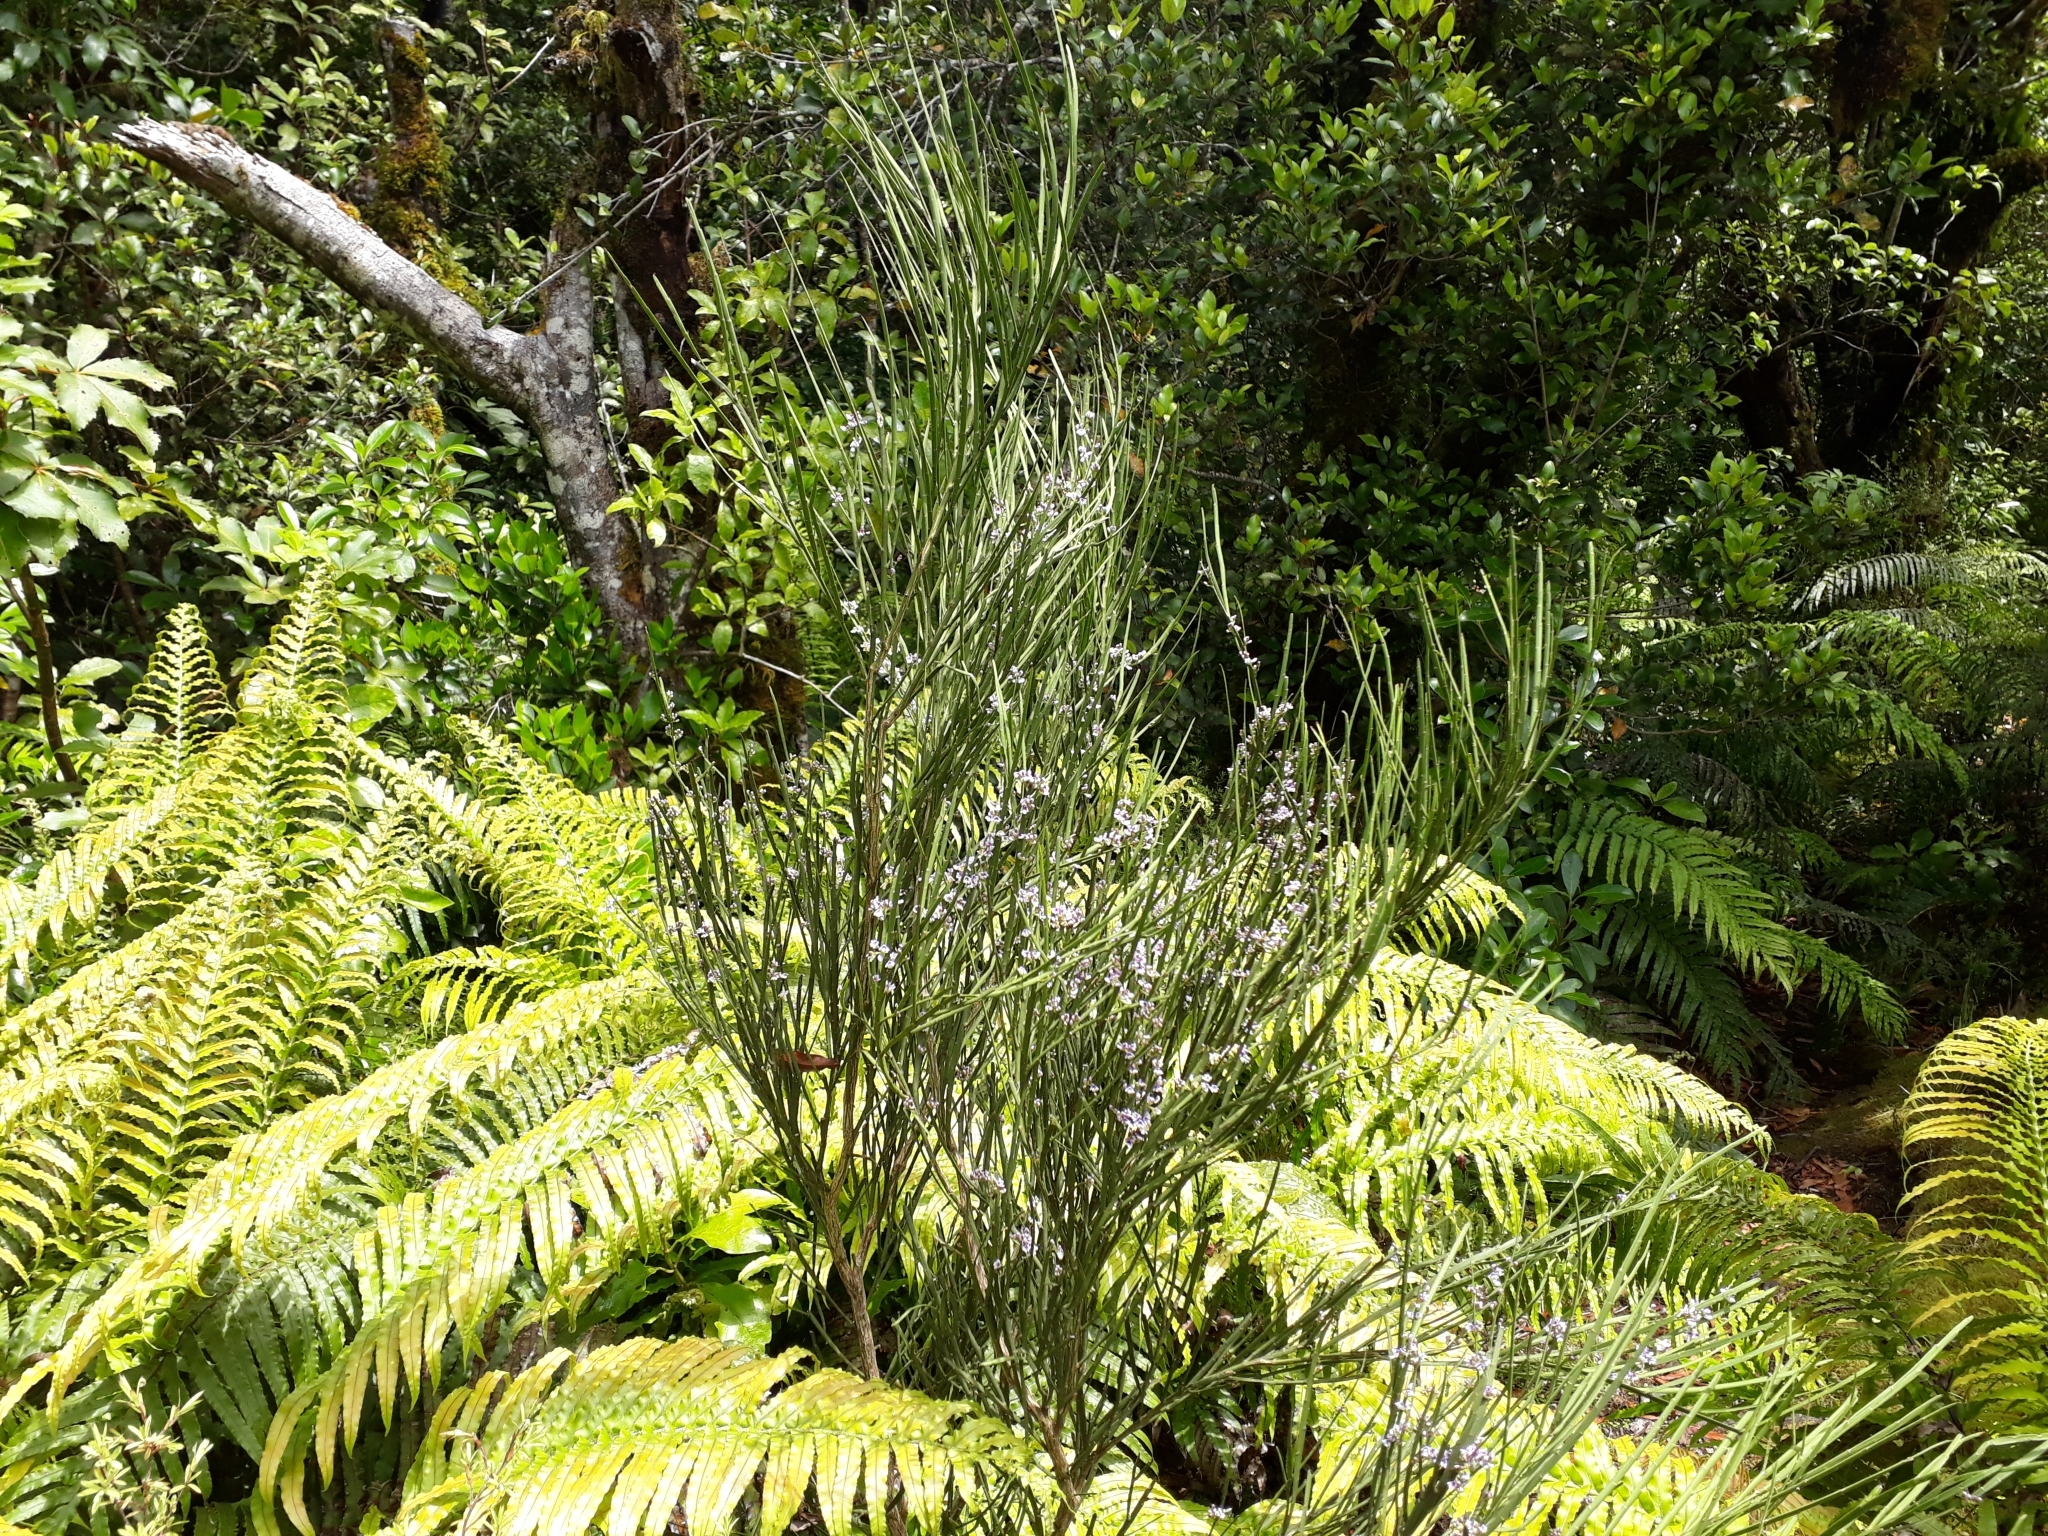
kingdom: Plantae
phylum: Tracheophyta
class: Magnoliopsida
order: Fabales
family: Fabaceae
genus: Carmichaelia
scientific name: Carmichaelia australis
